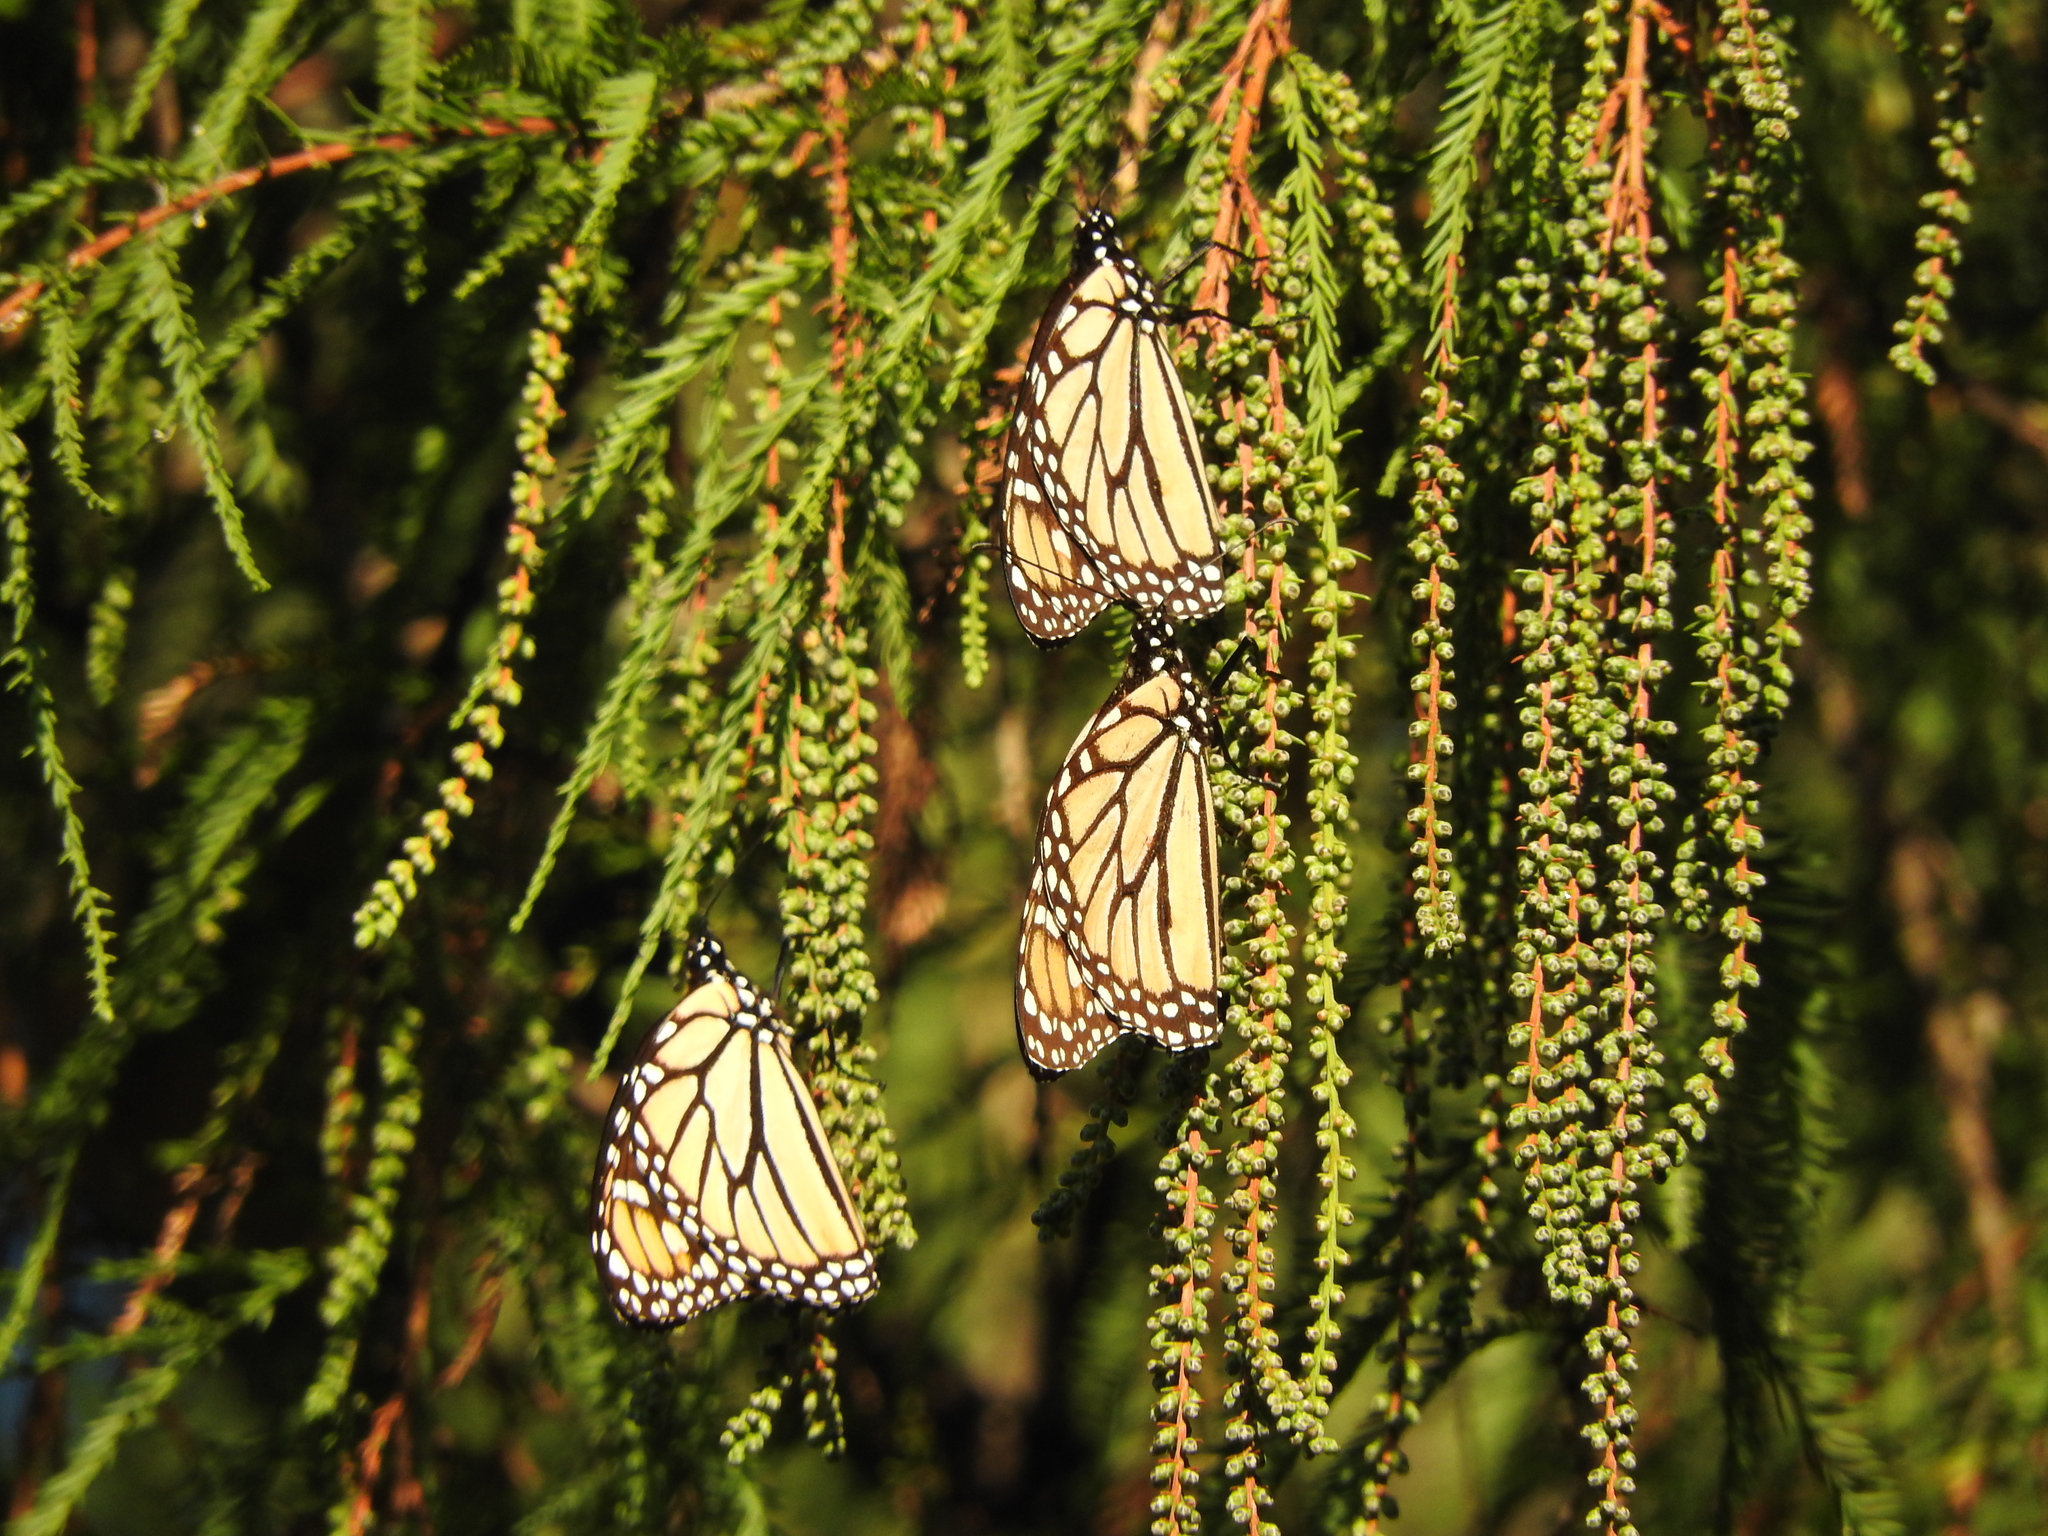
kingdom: Animalia
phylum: Arthropoda
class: Insecta
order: Lepidoptera
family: Nymphalidae
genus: Danaus
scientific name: Danaus plexippus
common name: Monarch
